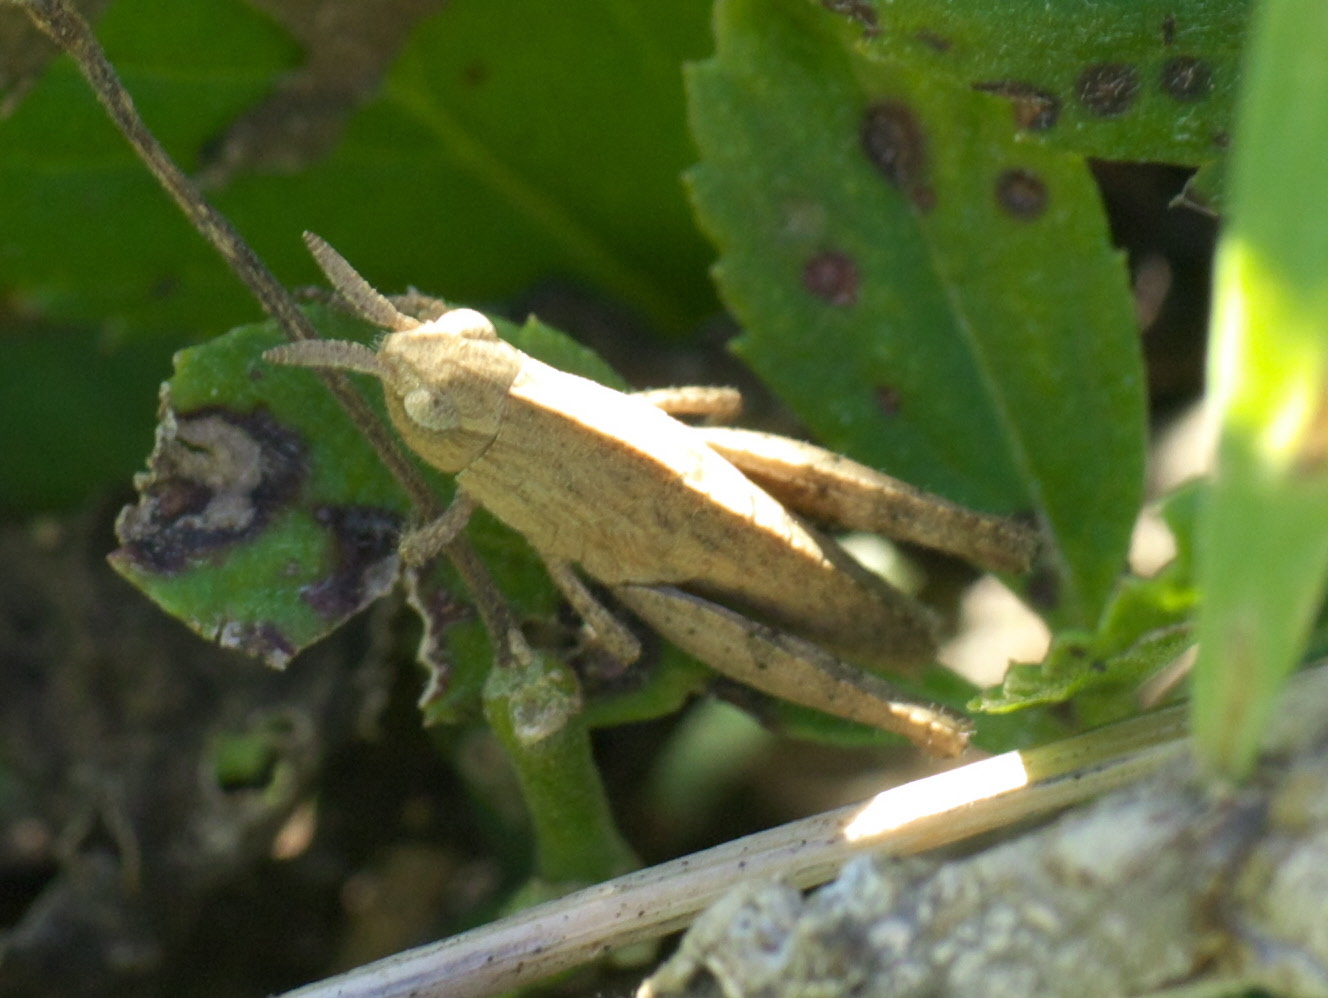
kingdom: Animalia
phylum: Arthropoda
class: Insecta
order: Orthoptera
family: Acrididae
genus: Chortophaga
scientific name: Chortophaga viridifasciata
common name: Green-striped grasshopper
